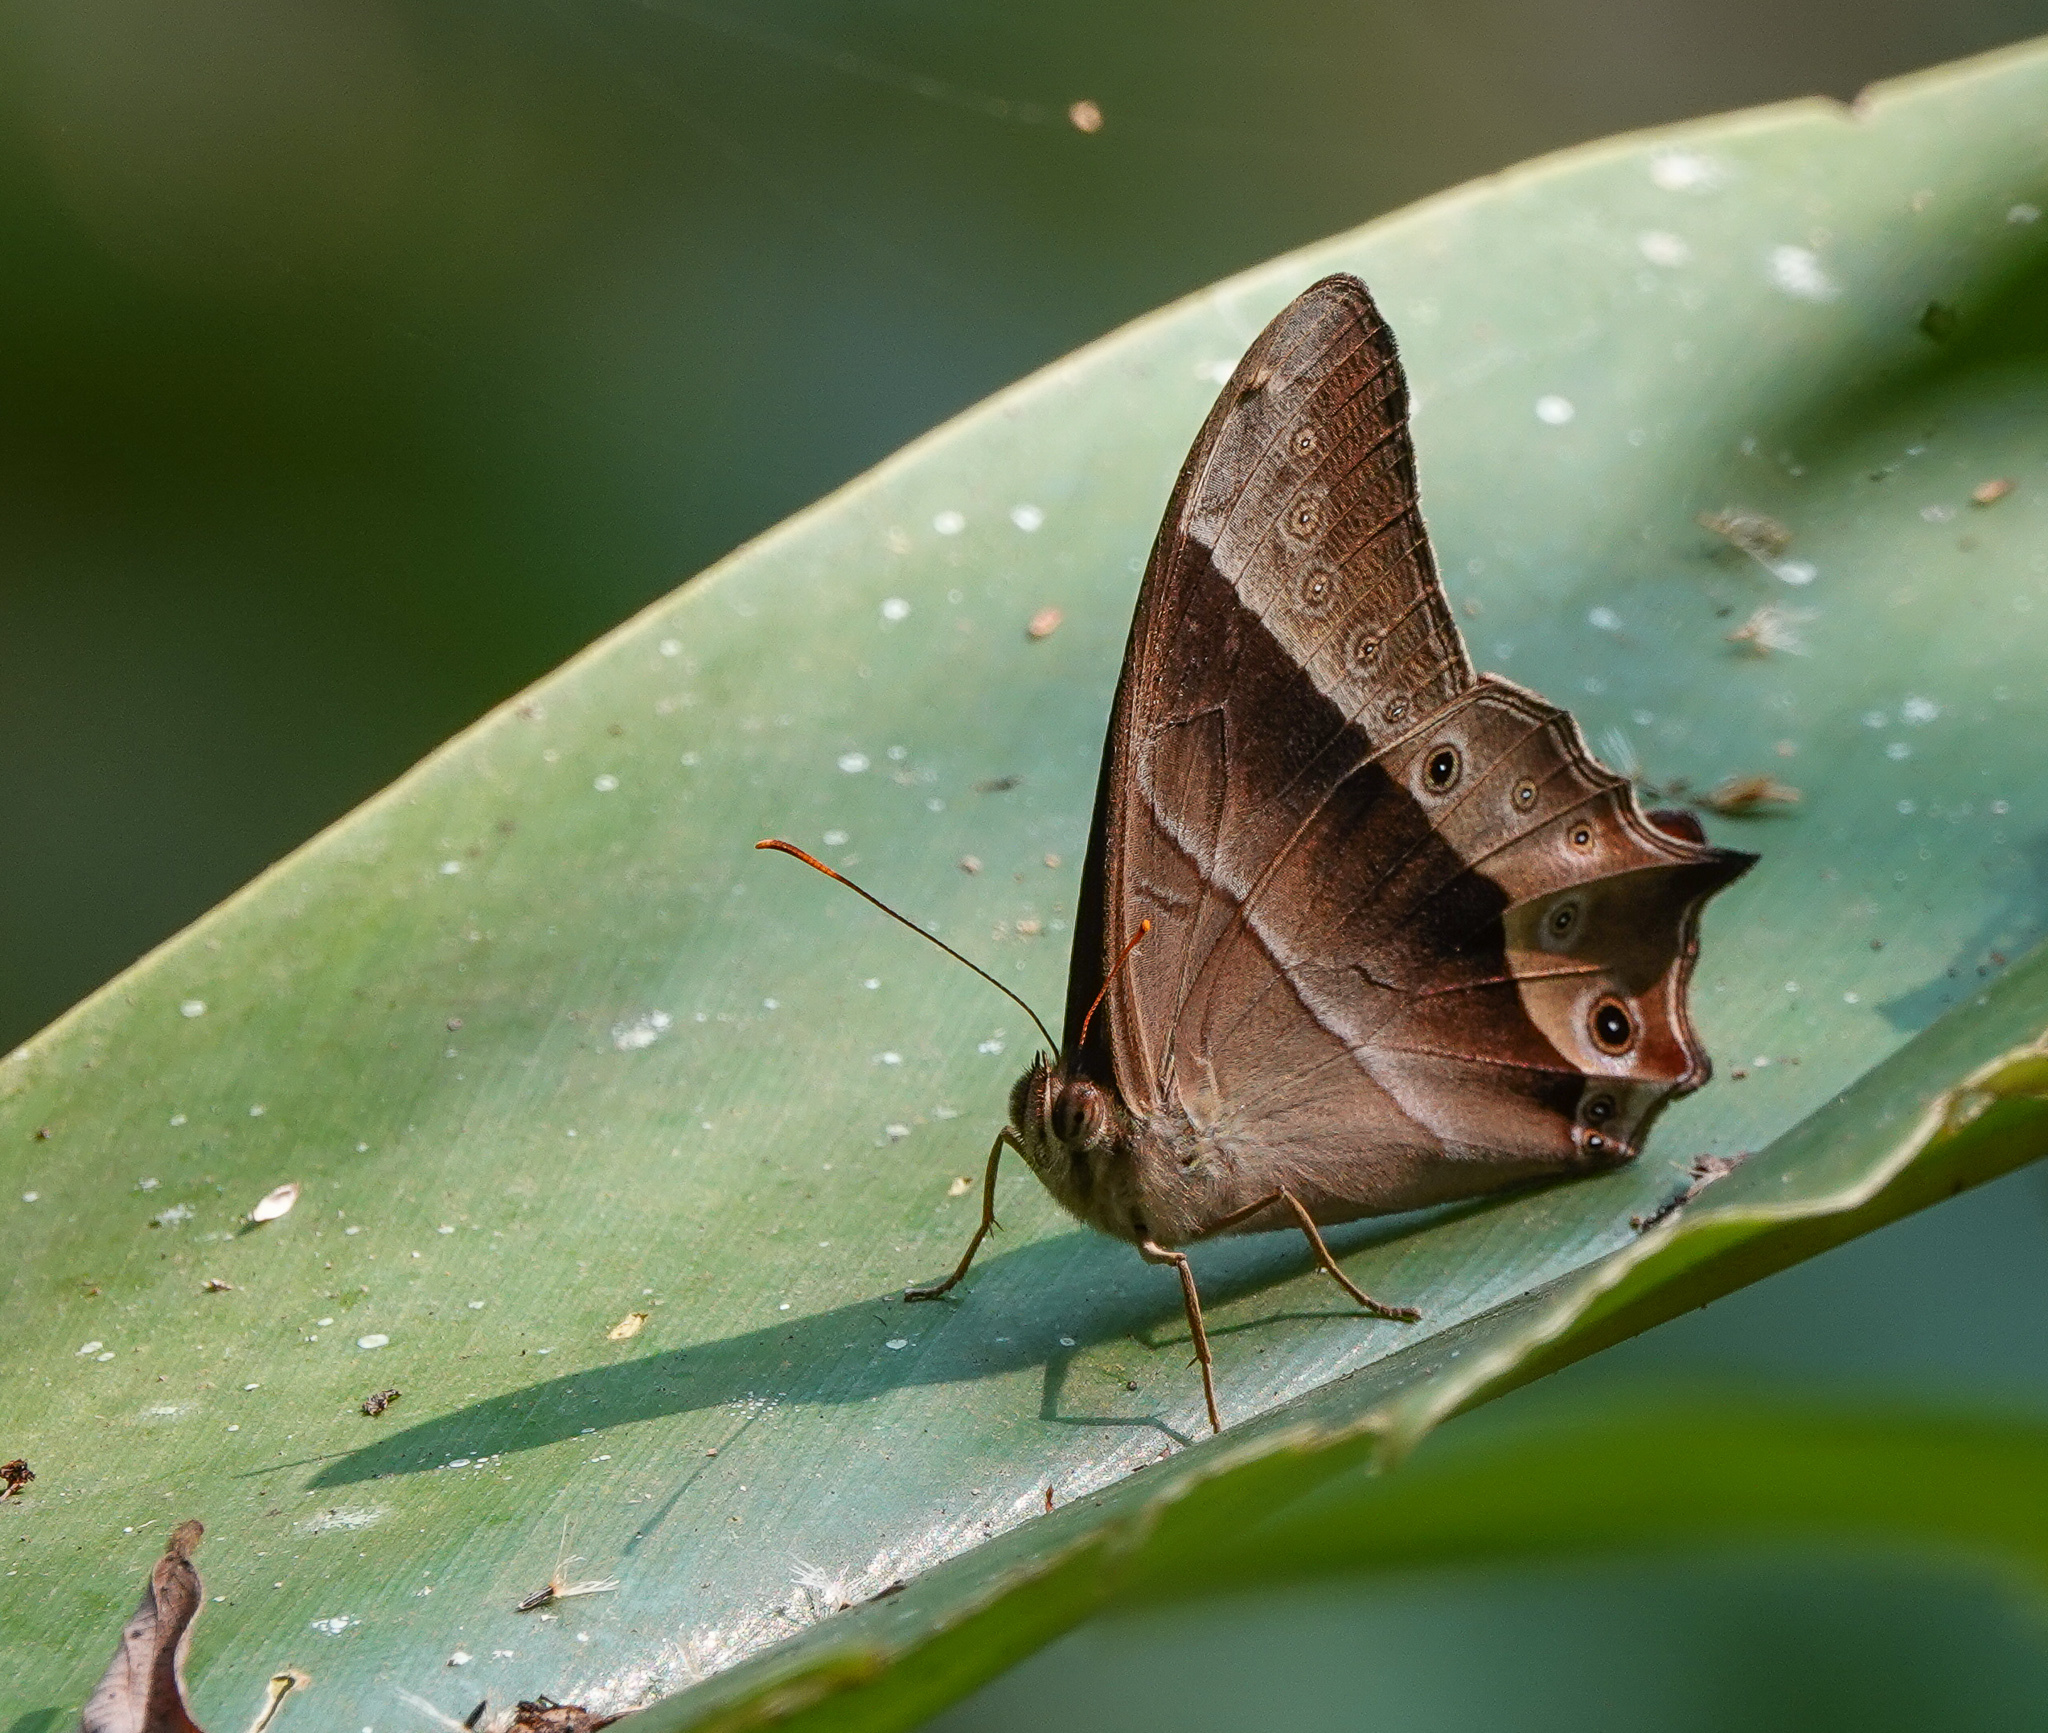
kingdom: Animalia
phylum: Arthropoda
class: Insecta
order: Lepidoptera
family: Nymphalidae
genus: Lethe
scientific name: Lethe vindhya
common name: Black forester
